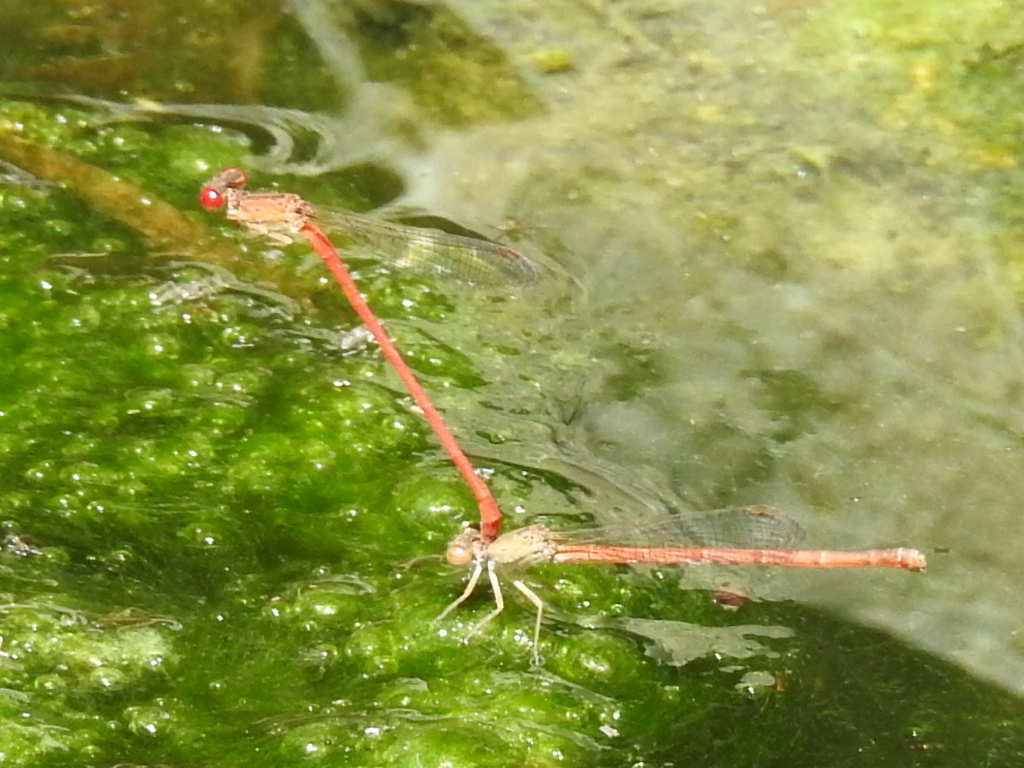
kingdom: Animalia
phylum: Arthropoda
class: Insecta
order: Odonata
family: Coenagrionidae
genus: Telebasis
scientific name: Telebasis salva
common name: Desert firetail
